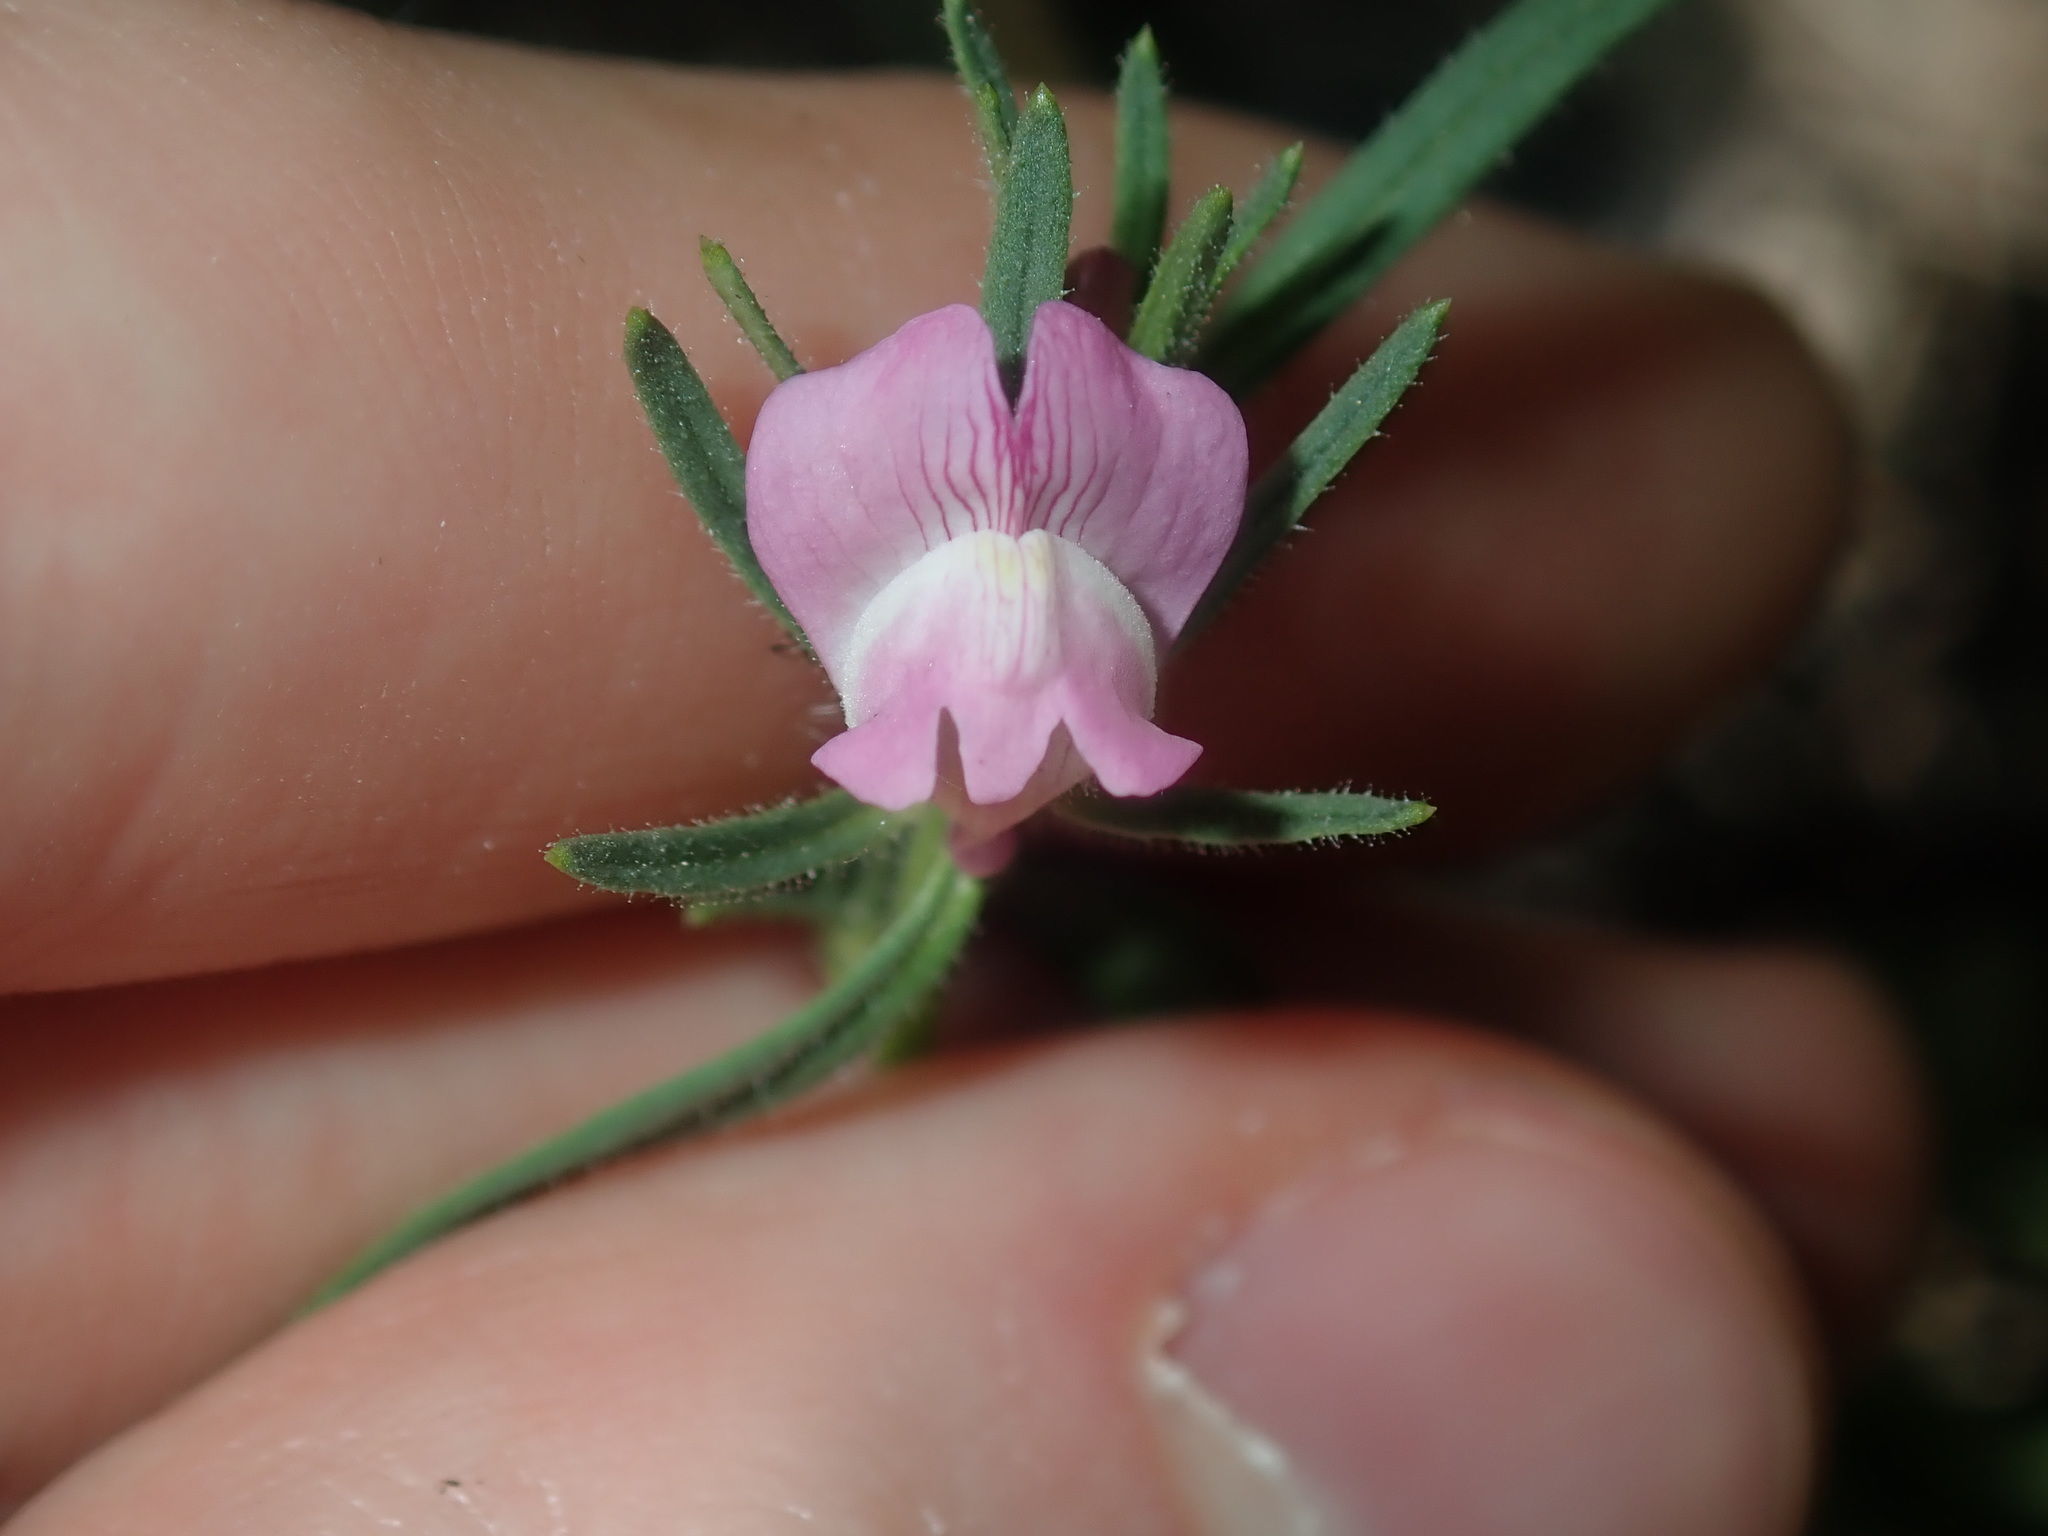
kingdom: Plantae
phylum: Tracheophyta
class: Magnoliopsida
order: Lamiales
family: Plantaginaceae
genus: Misopates
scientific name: Misopates orontium
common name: Weasel's-snout
